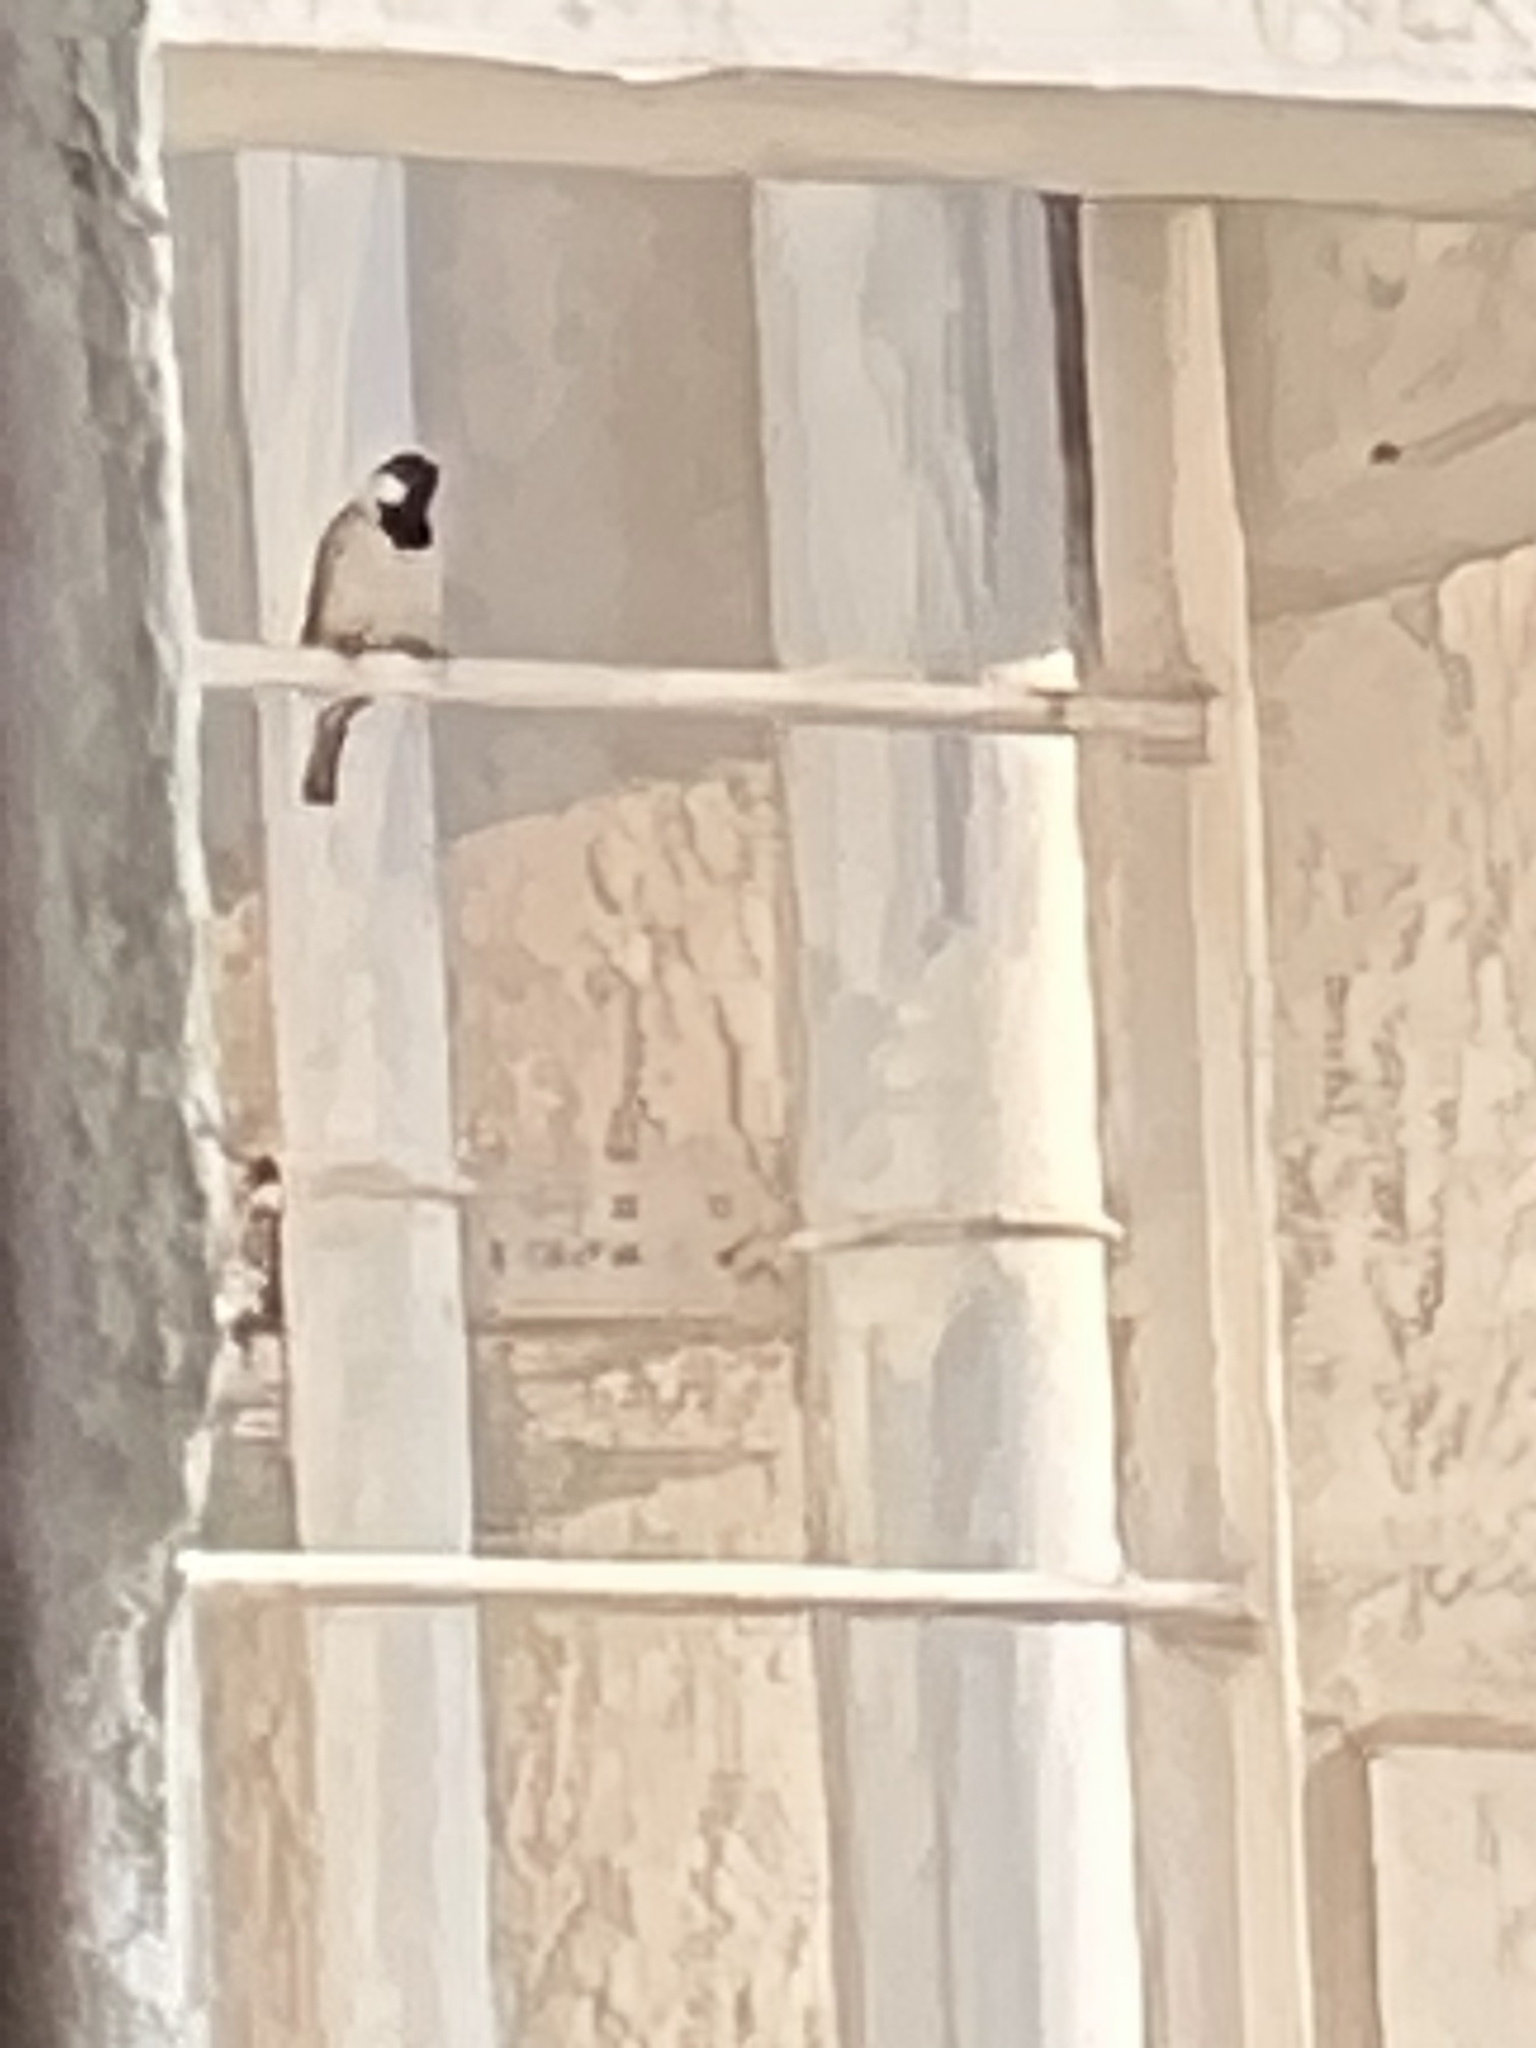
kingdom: Animalia
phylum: Chordata
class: Aves
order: Passeriformes
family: Passeridae
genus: Passer
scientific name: Passer domesticus
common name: House sparrow
